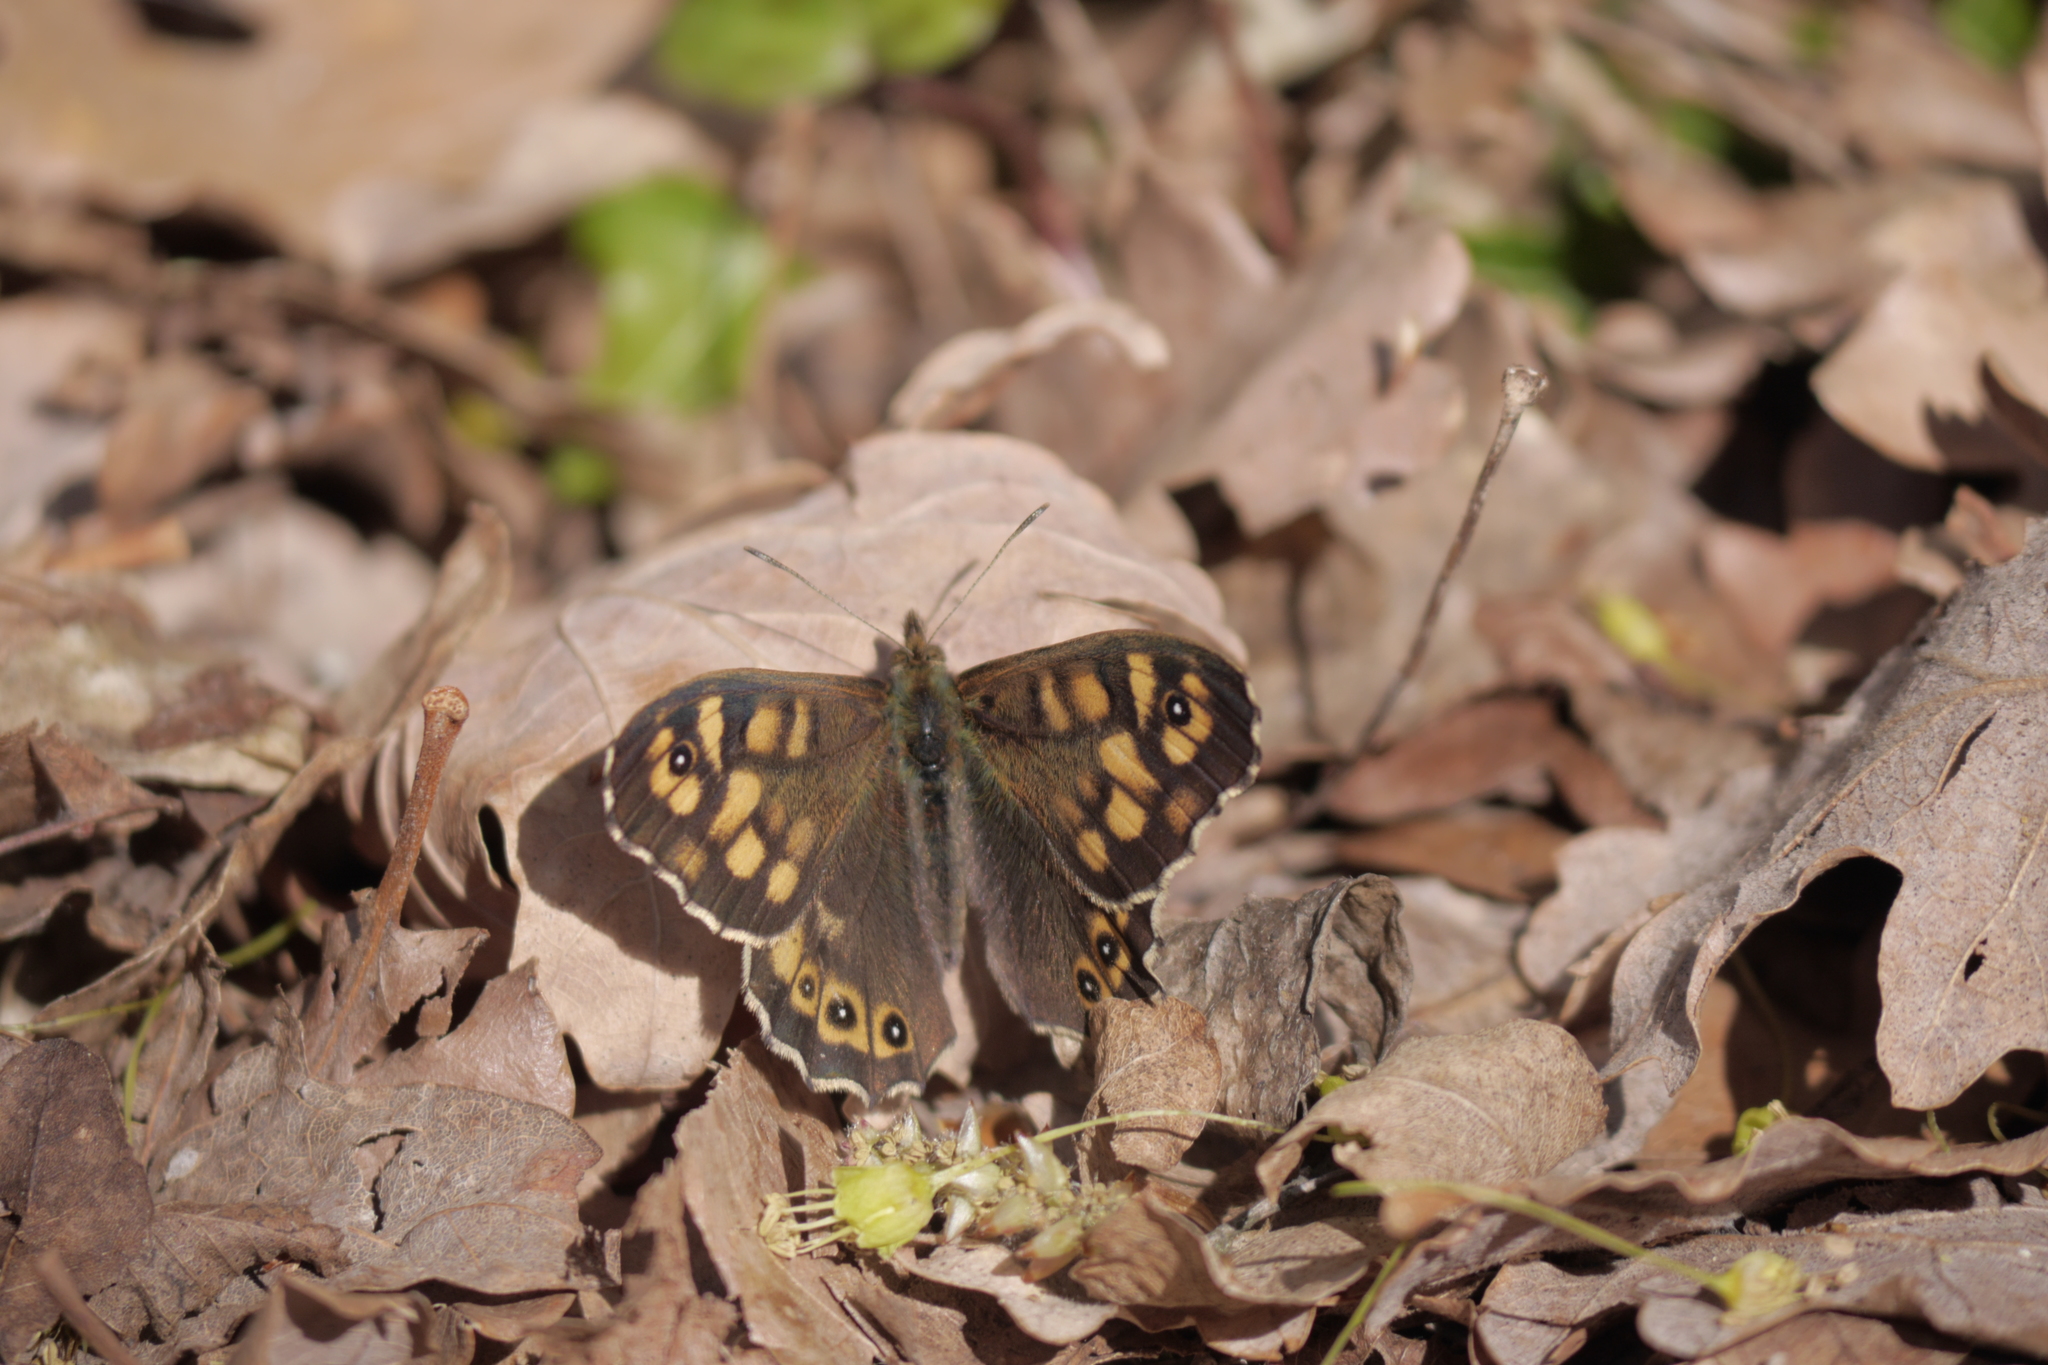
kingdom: Animalia
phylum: Arthropoda
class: Insecta
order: Lepidoptera
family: Nymphalidae
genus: Pararge
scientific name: Pararge aegeria
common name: Speckled wood
